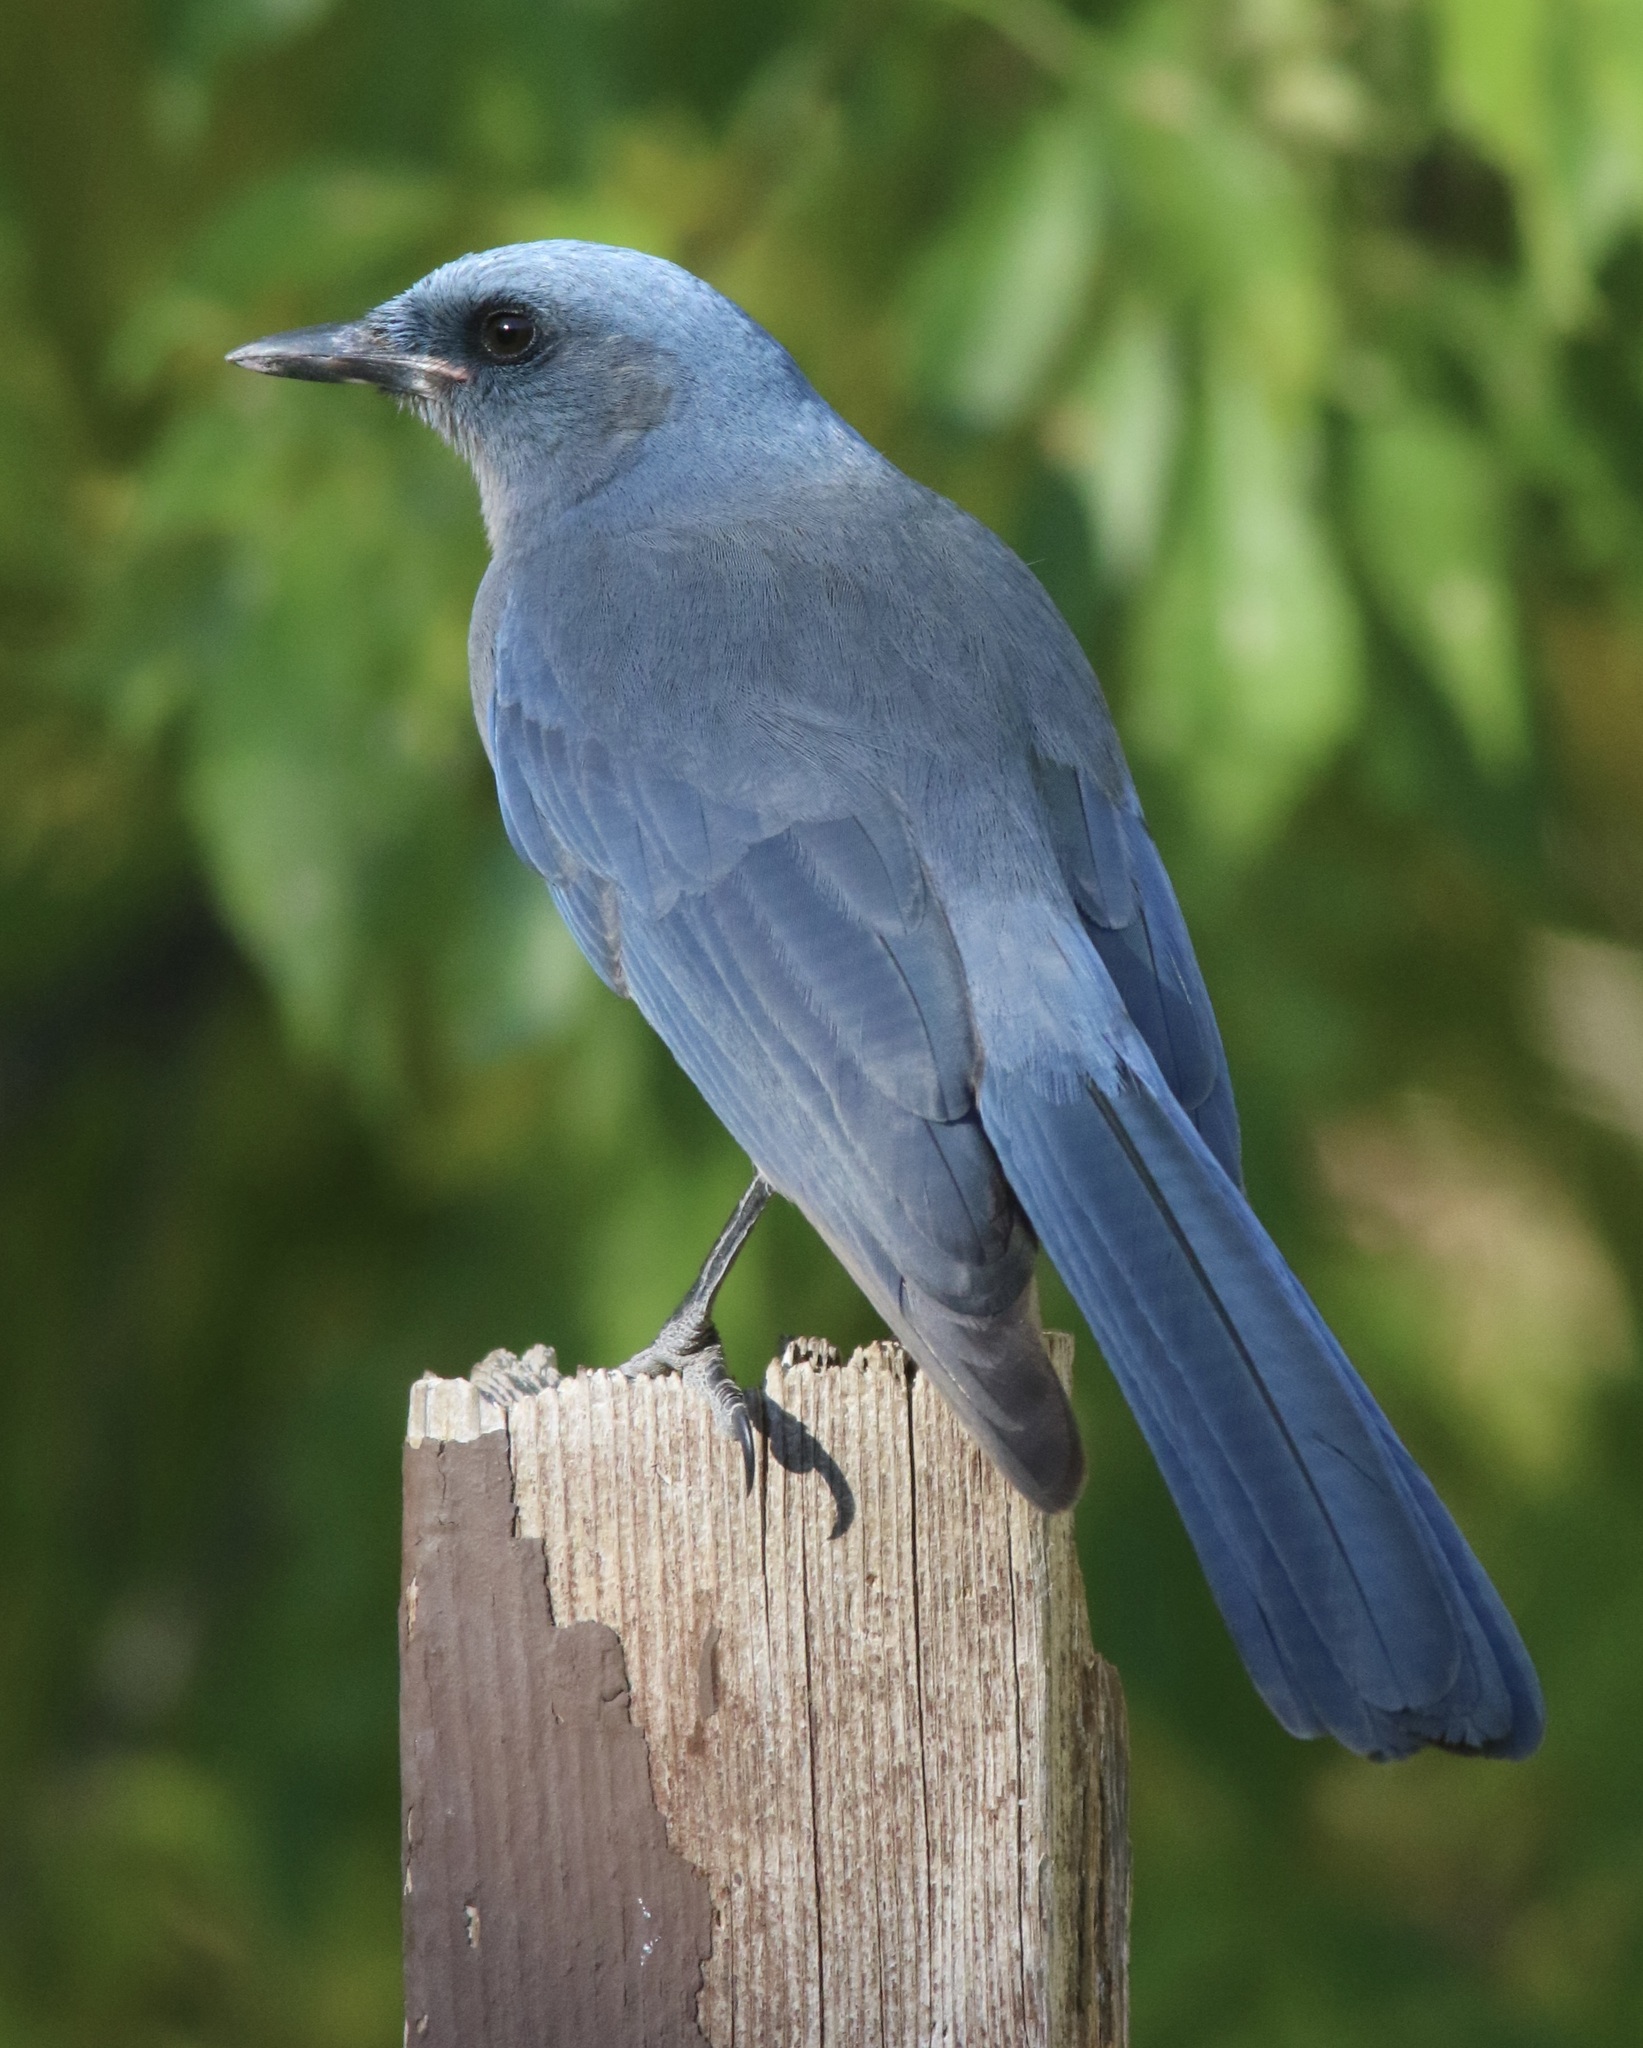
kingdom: Animalia
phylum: Chordata
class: Aves
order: Passeriformes
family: Corvidae
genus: Aphelocoma
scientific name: Aphelocoma wollweberi
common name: Mexican jay
